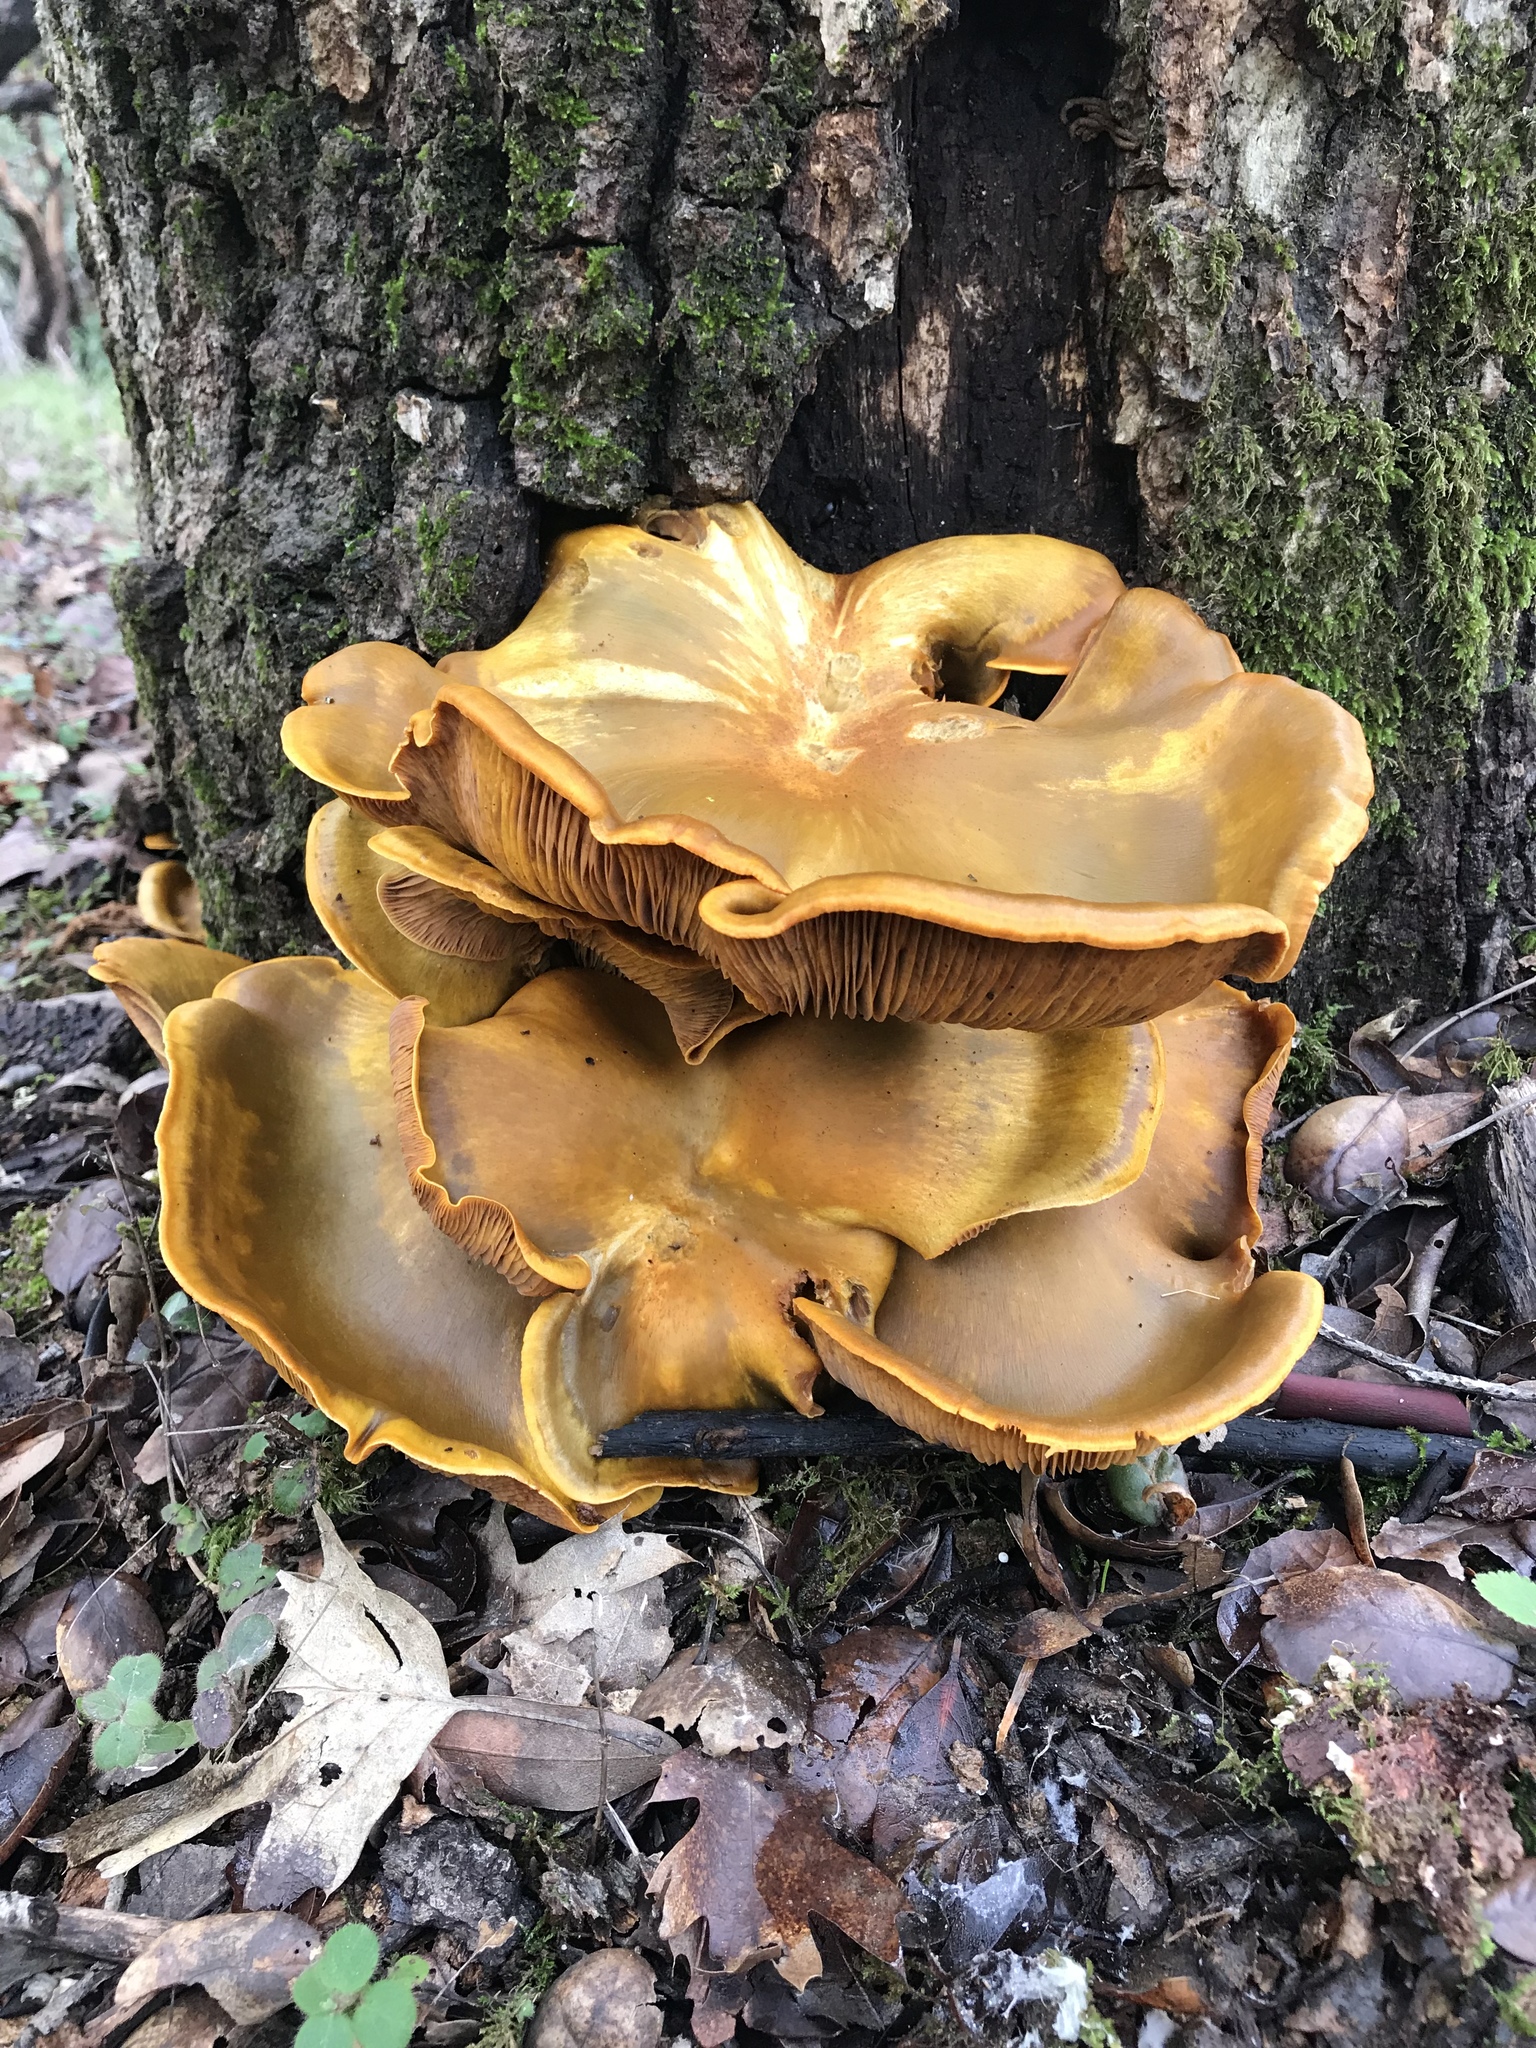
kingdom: Fungi
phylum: Basidiomycota
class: Agaricomycetes
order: Agaricales
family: Omphalotaceae
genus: Omphalotus
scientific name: Omphalotus olivascens
